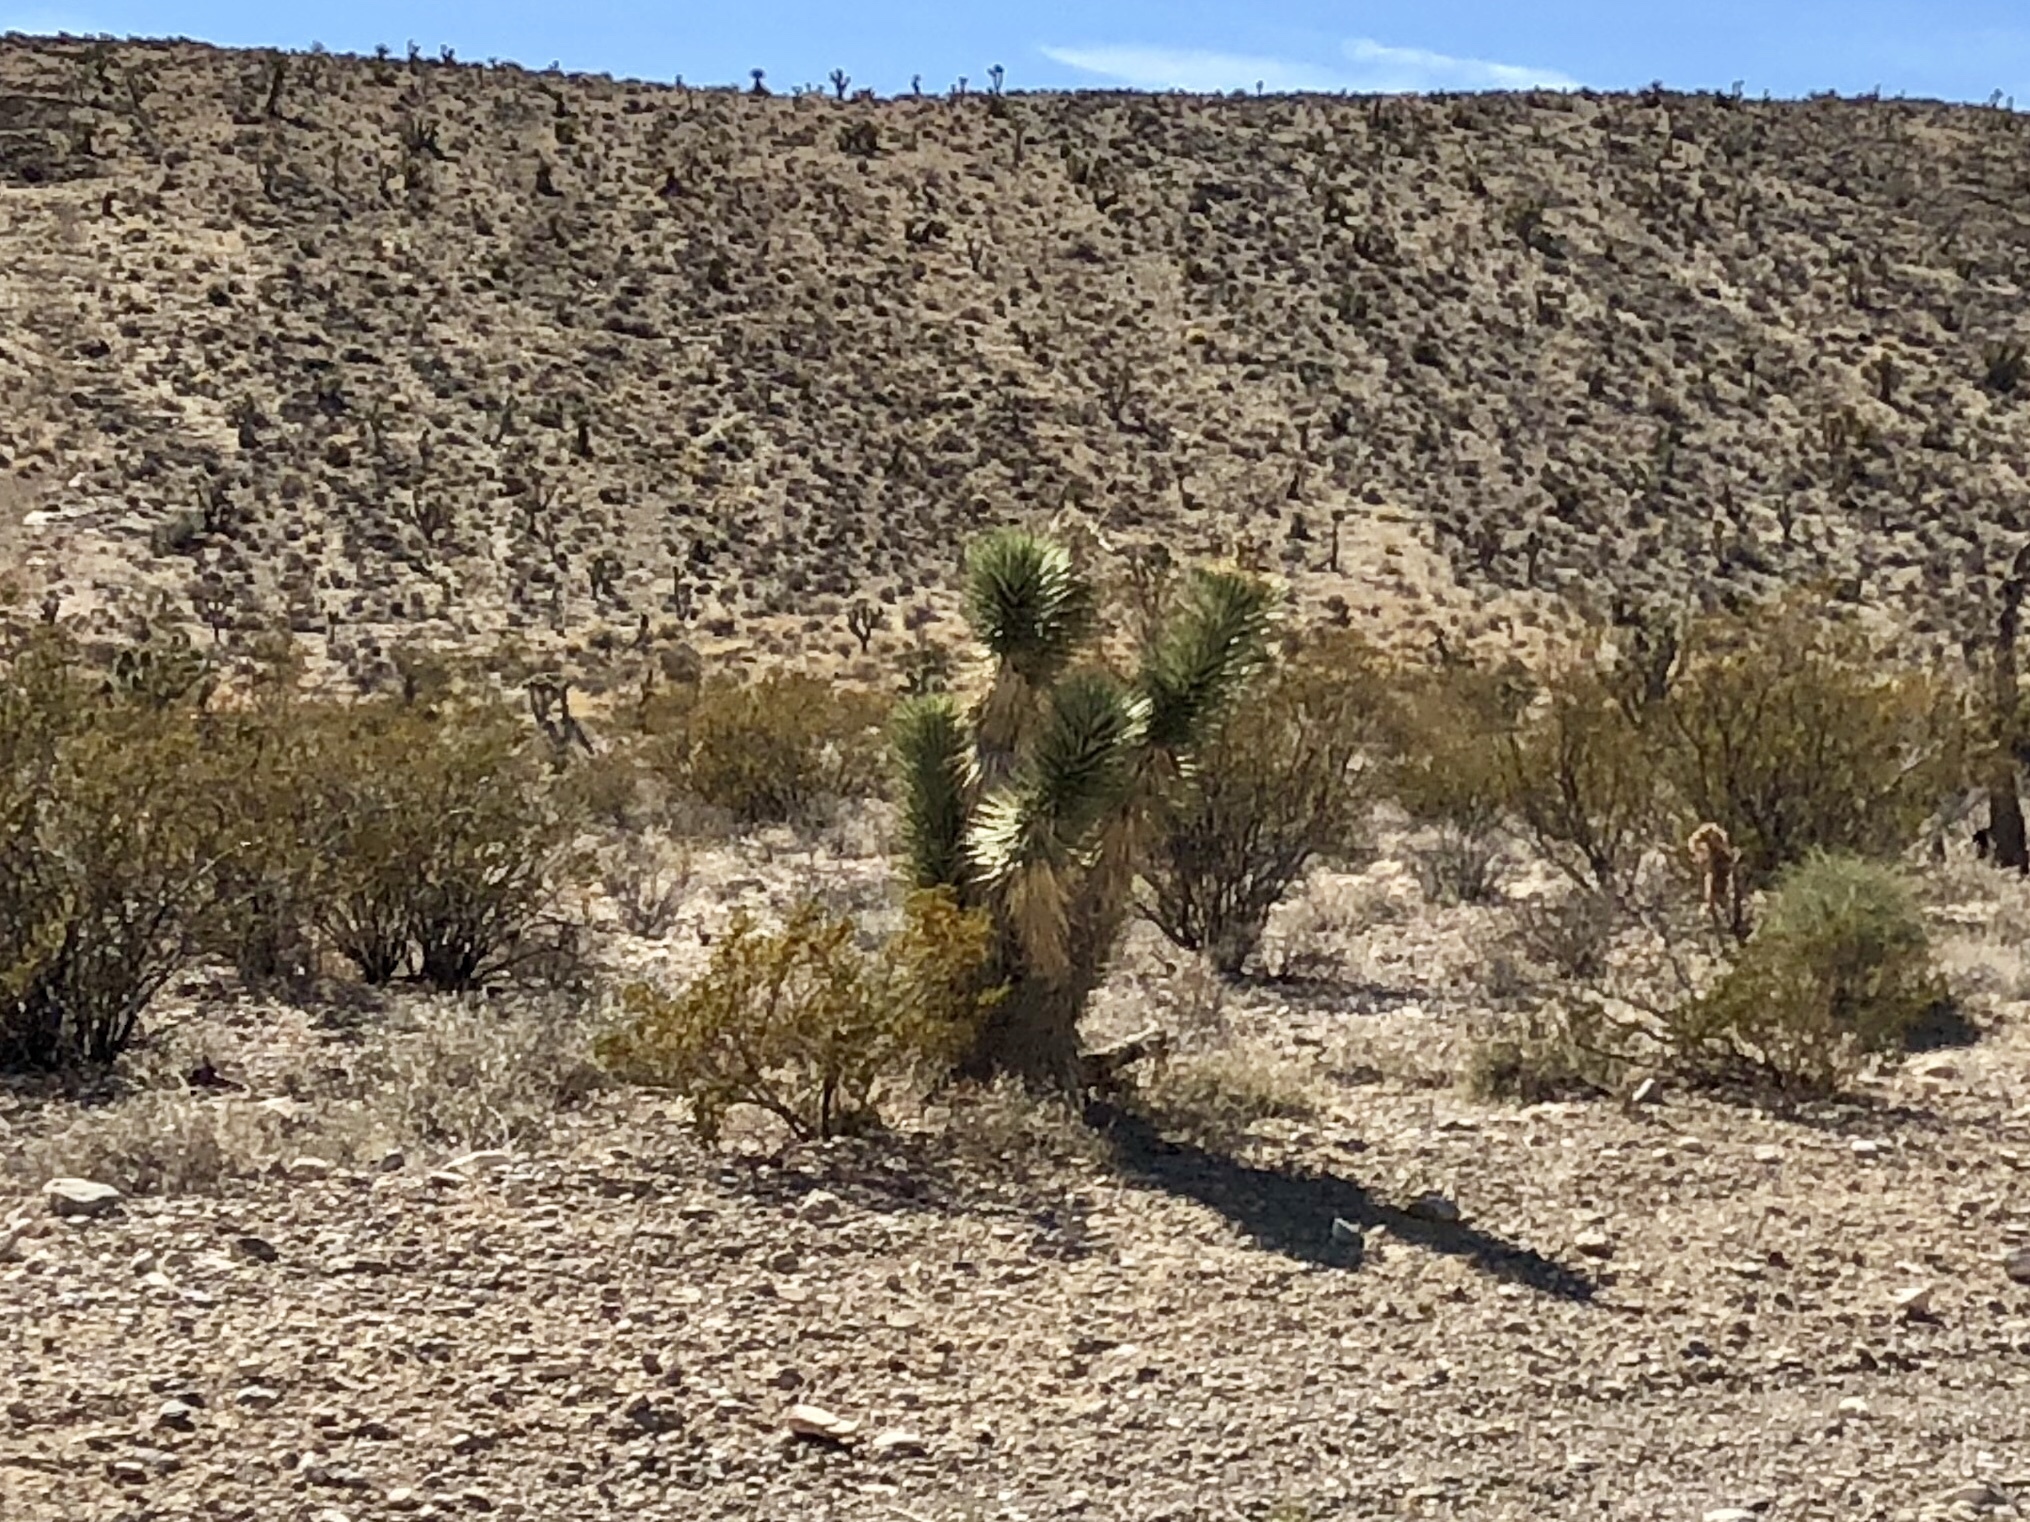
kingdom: Plantae
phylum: Tracheophyta
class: Liliopsida
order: Asparagales
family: Asparagaceae
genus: Yucca
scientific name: Yucca brevifolia
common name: Joshua tree
